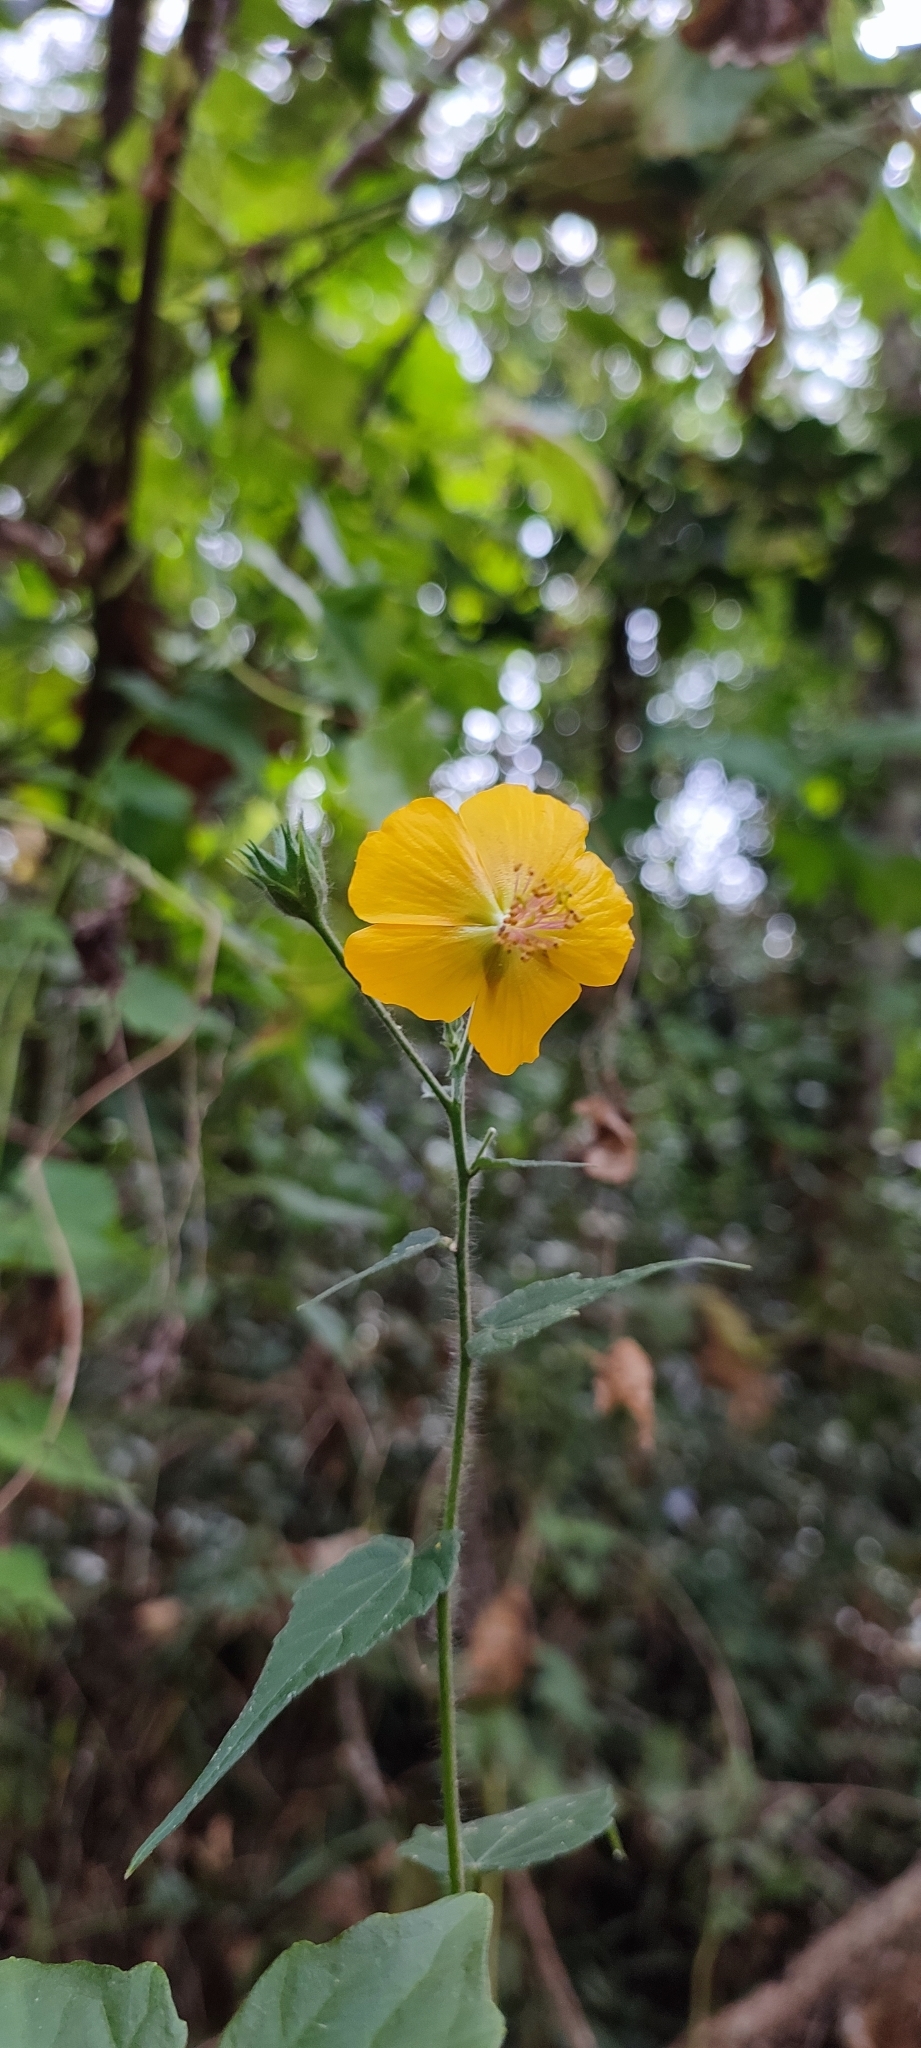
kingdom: Plantae
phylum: Tracheophyta
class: Magnoliopsida
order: Malvales
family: Malvaceae
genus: Abutilon
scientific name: Abutilon persicum
